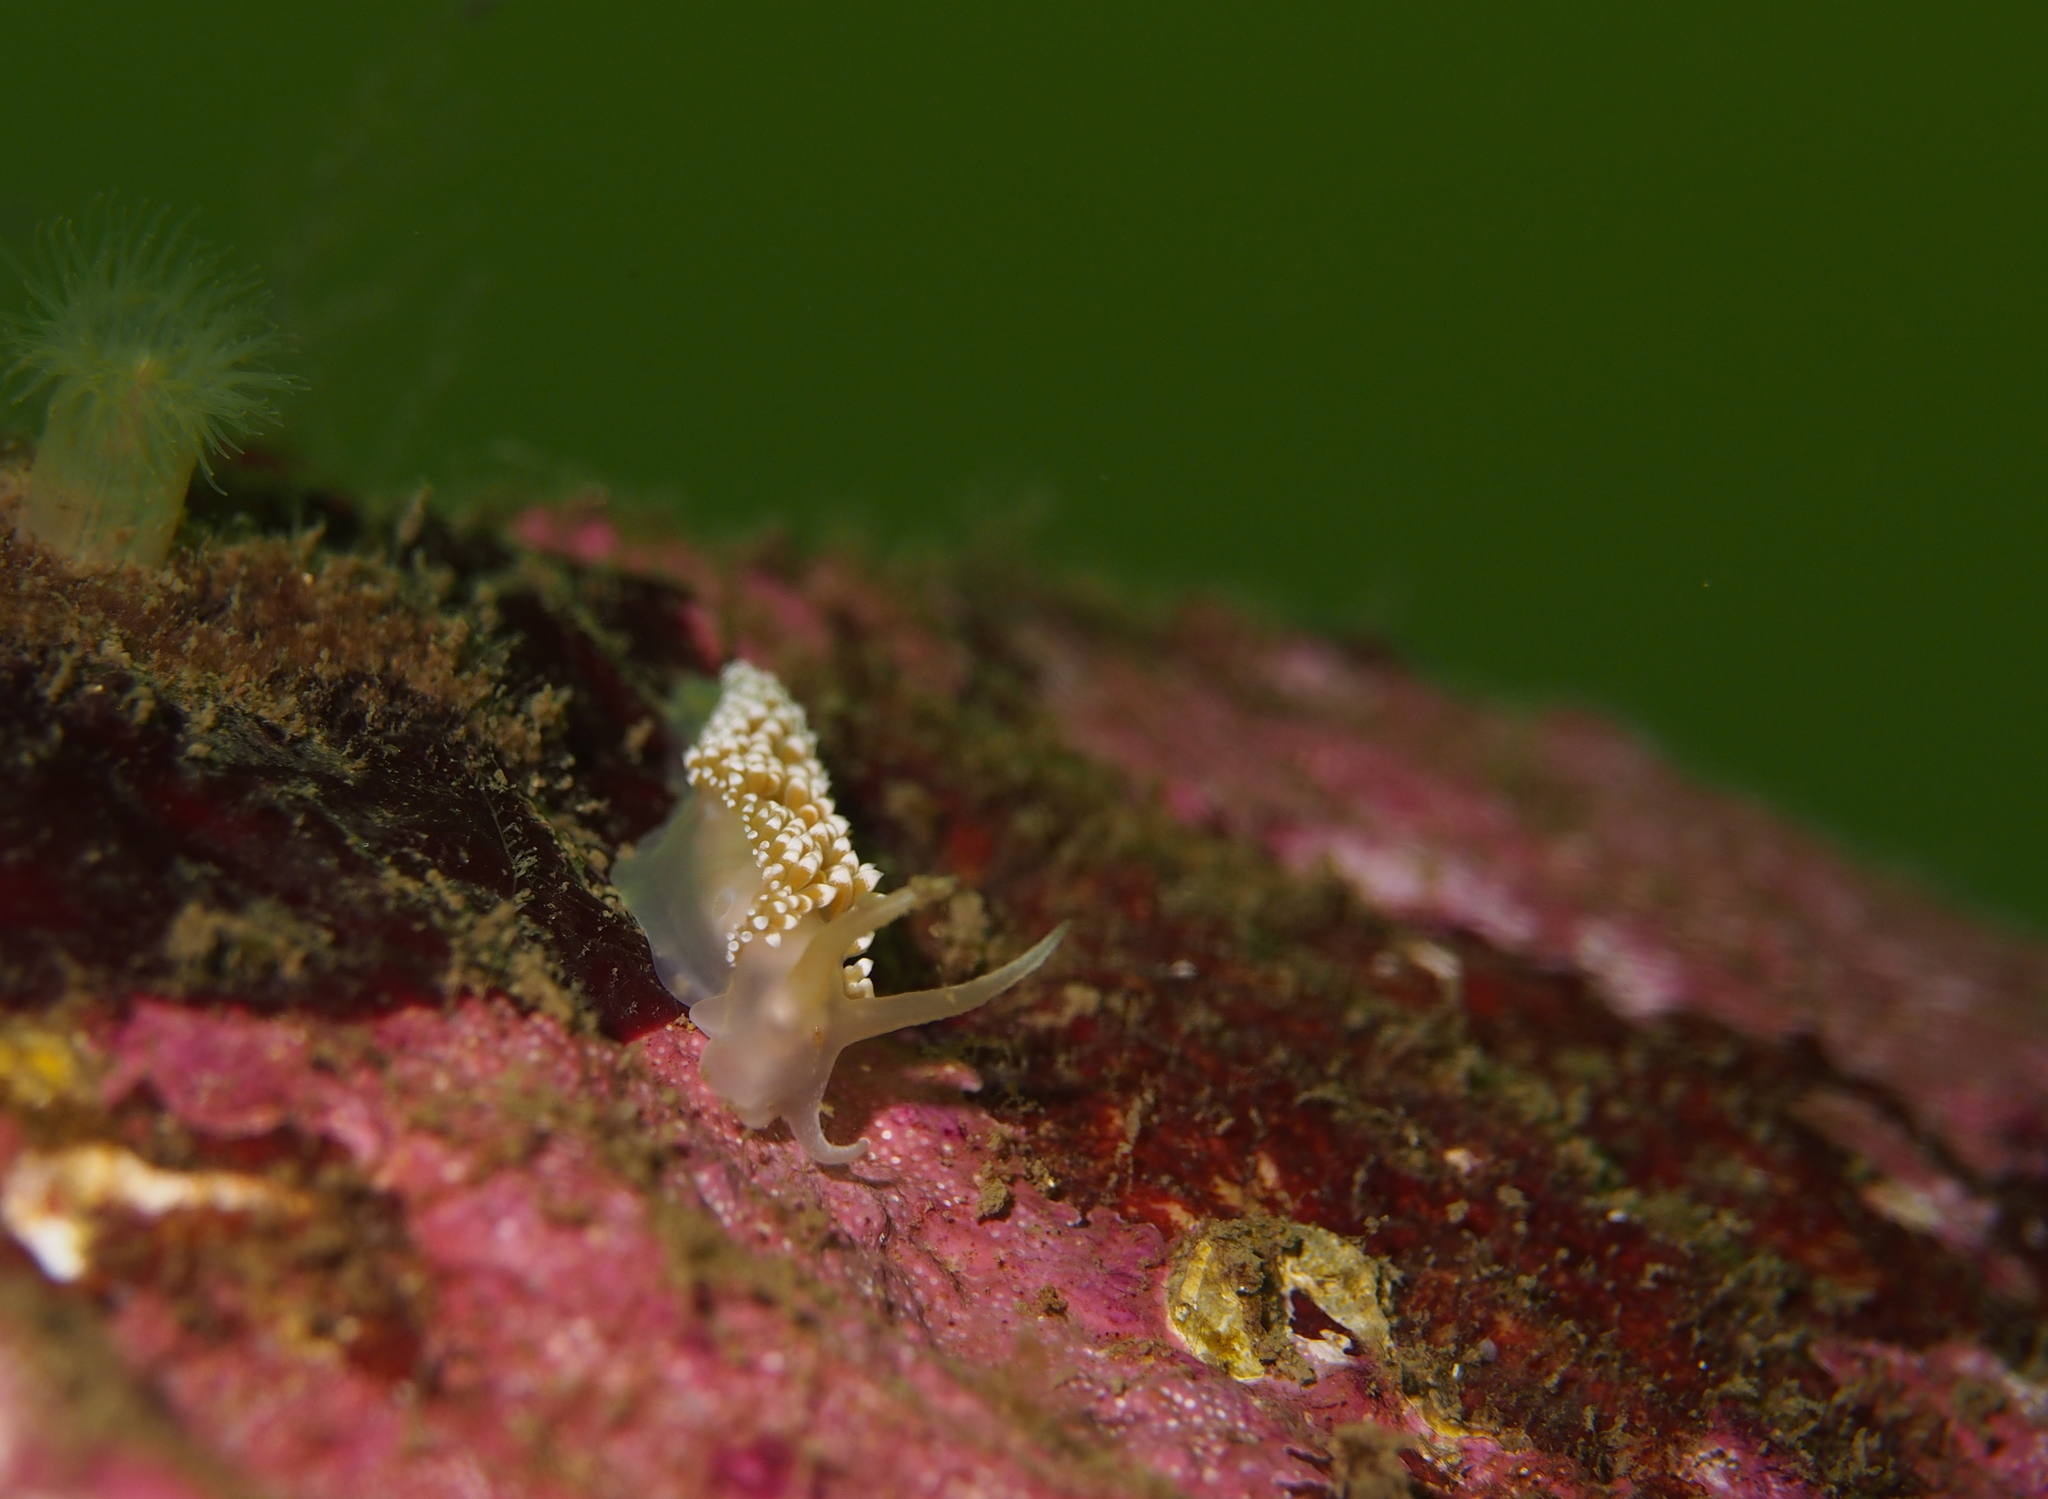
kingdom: Animalia
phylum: Mollusca
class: Gastropoda
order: Nudibranchia
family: Coryphellidae
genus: Coryphella
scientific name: Coryphella verrucosa
